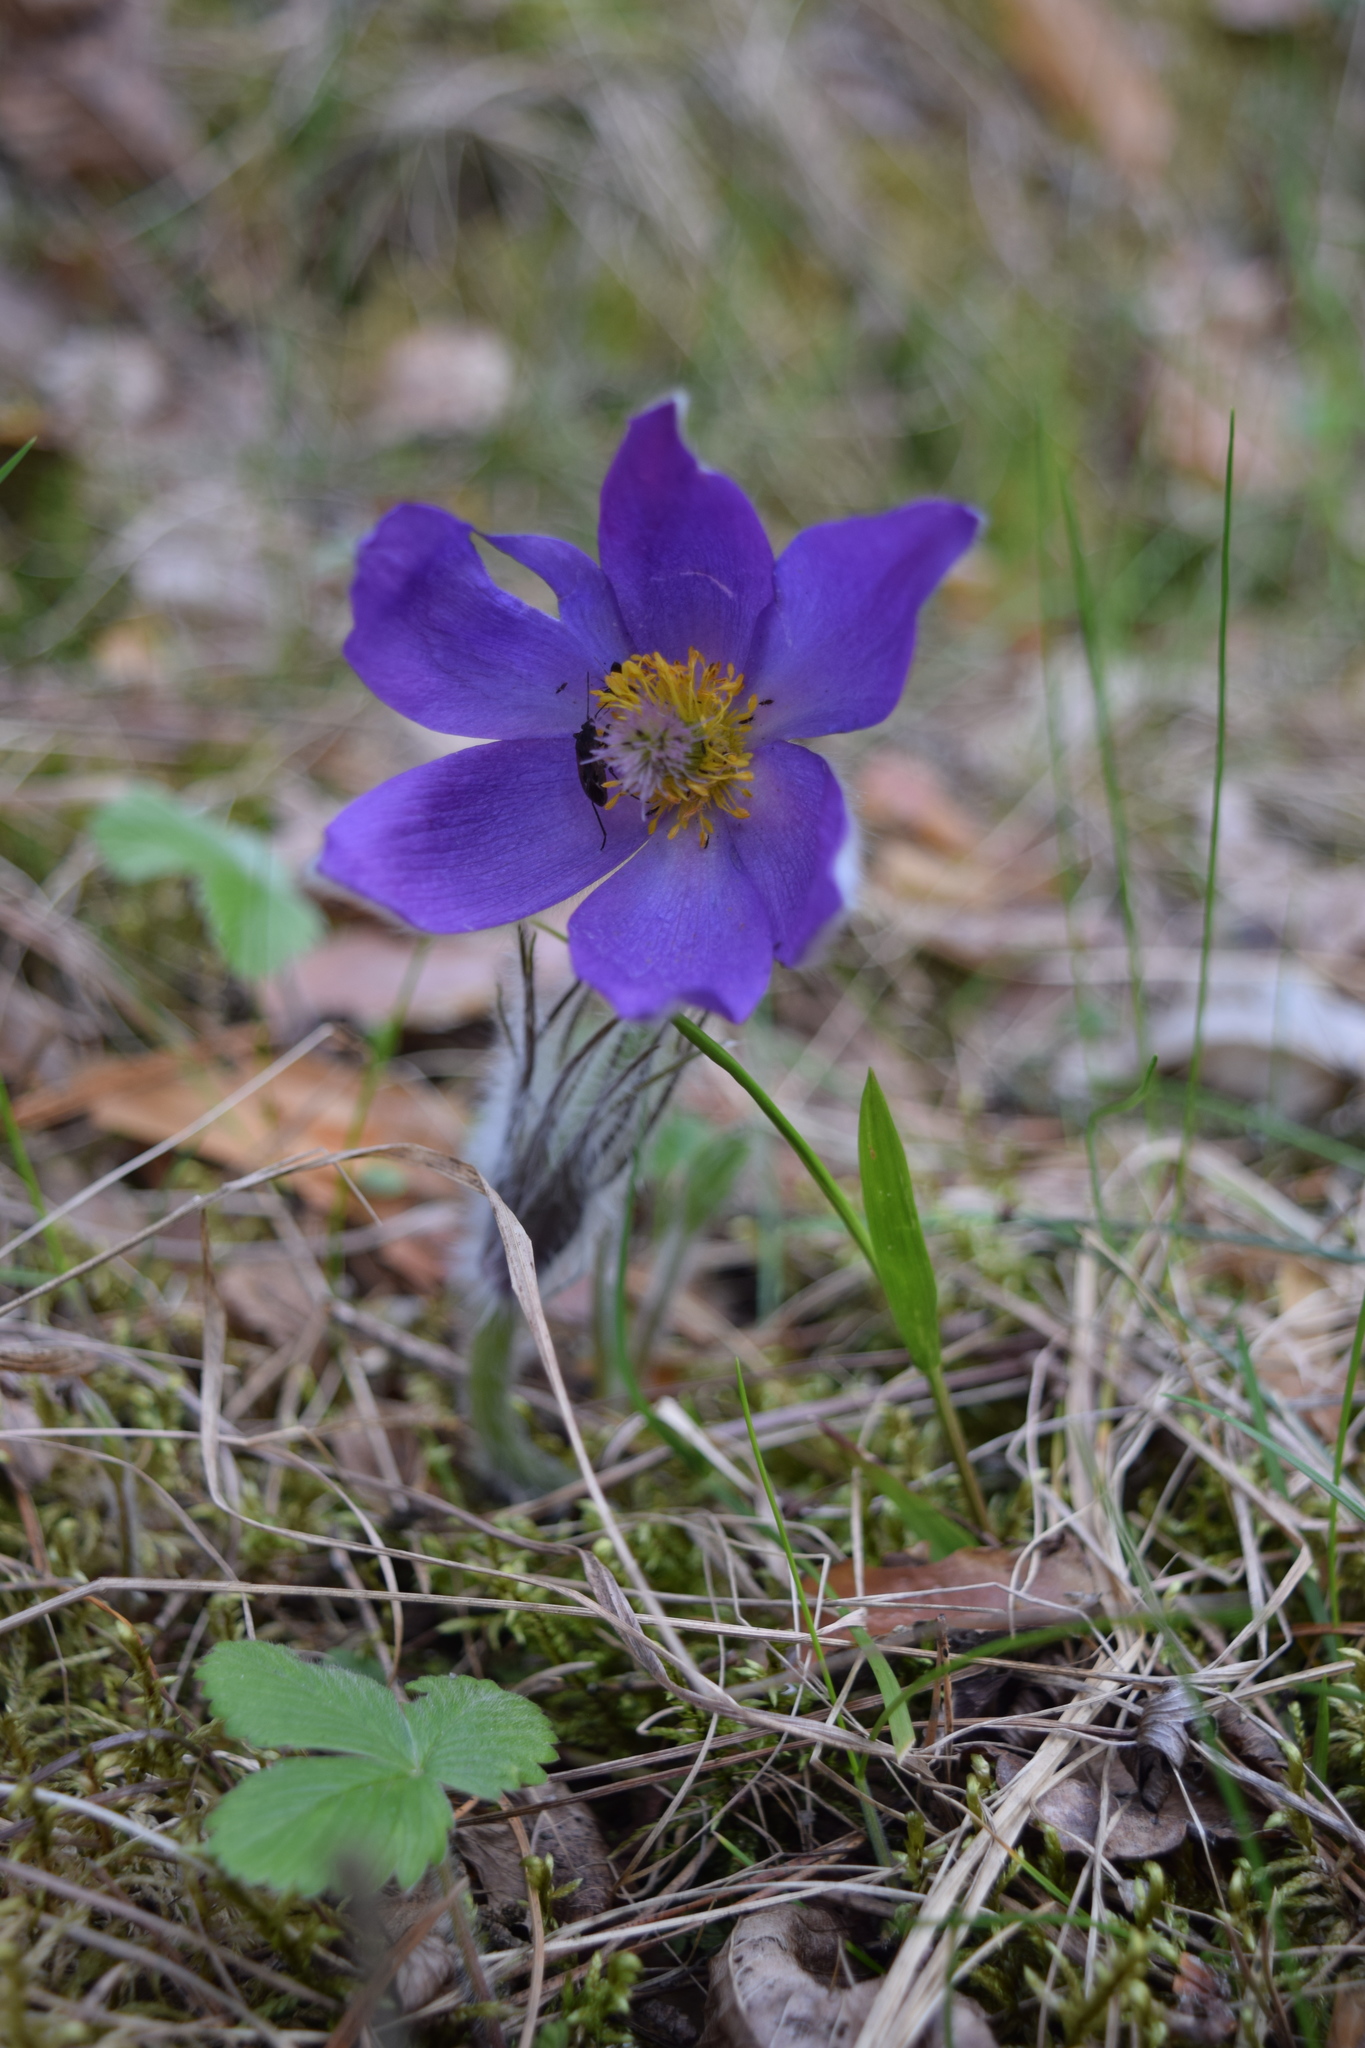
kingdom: Plantae
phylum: Tracheophyta
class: Magnoliopsida
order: Ranunculales
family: Ranunculaceae
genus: Pulsatilla
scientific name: Pulsatilla patens
